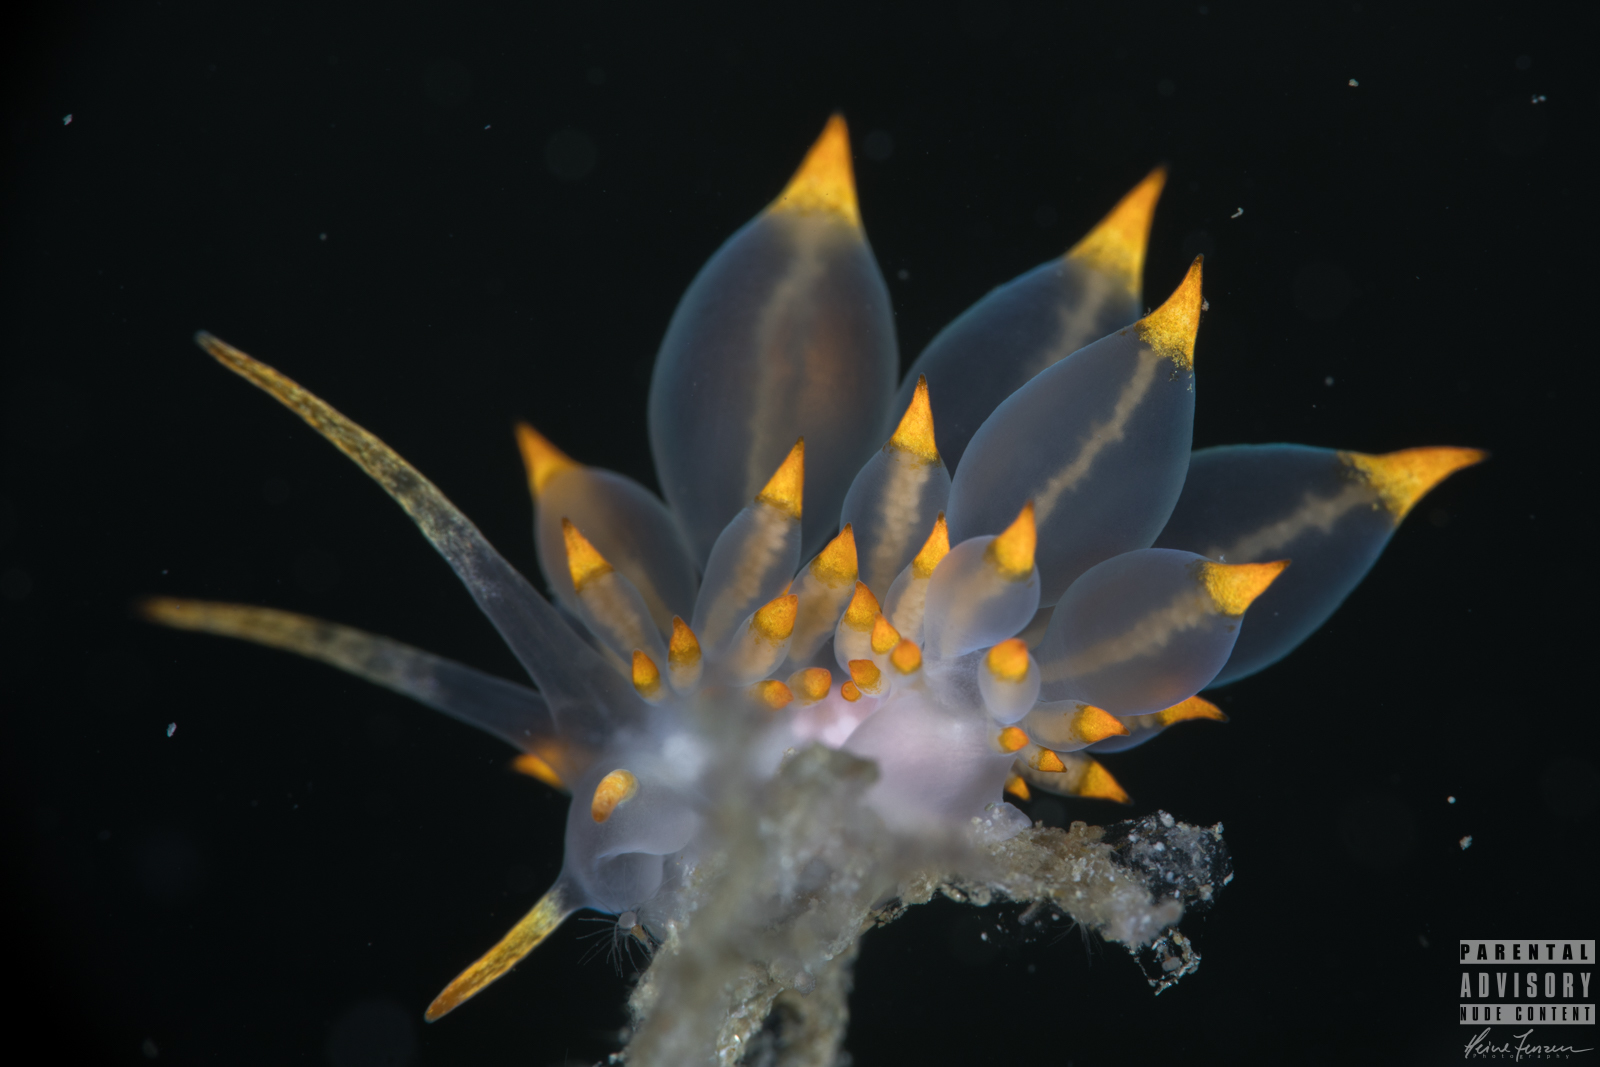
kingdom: Animalia
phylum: Mollusca
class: Gastropoda
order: Nudibranchia
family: Eubranchidae
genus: Amphorina
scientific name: Amphorina farrani
